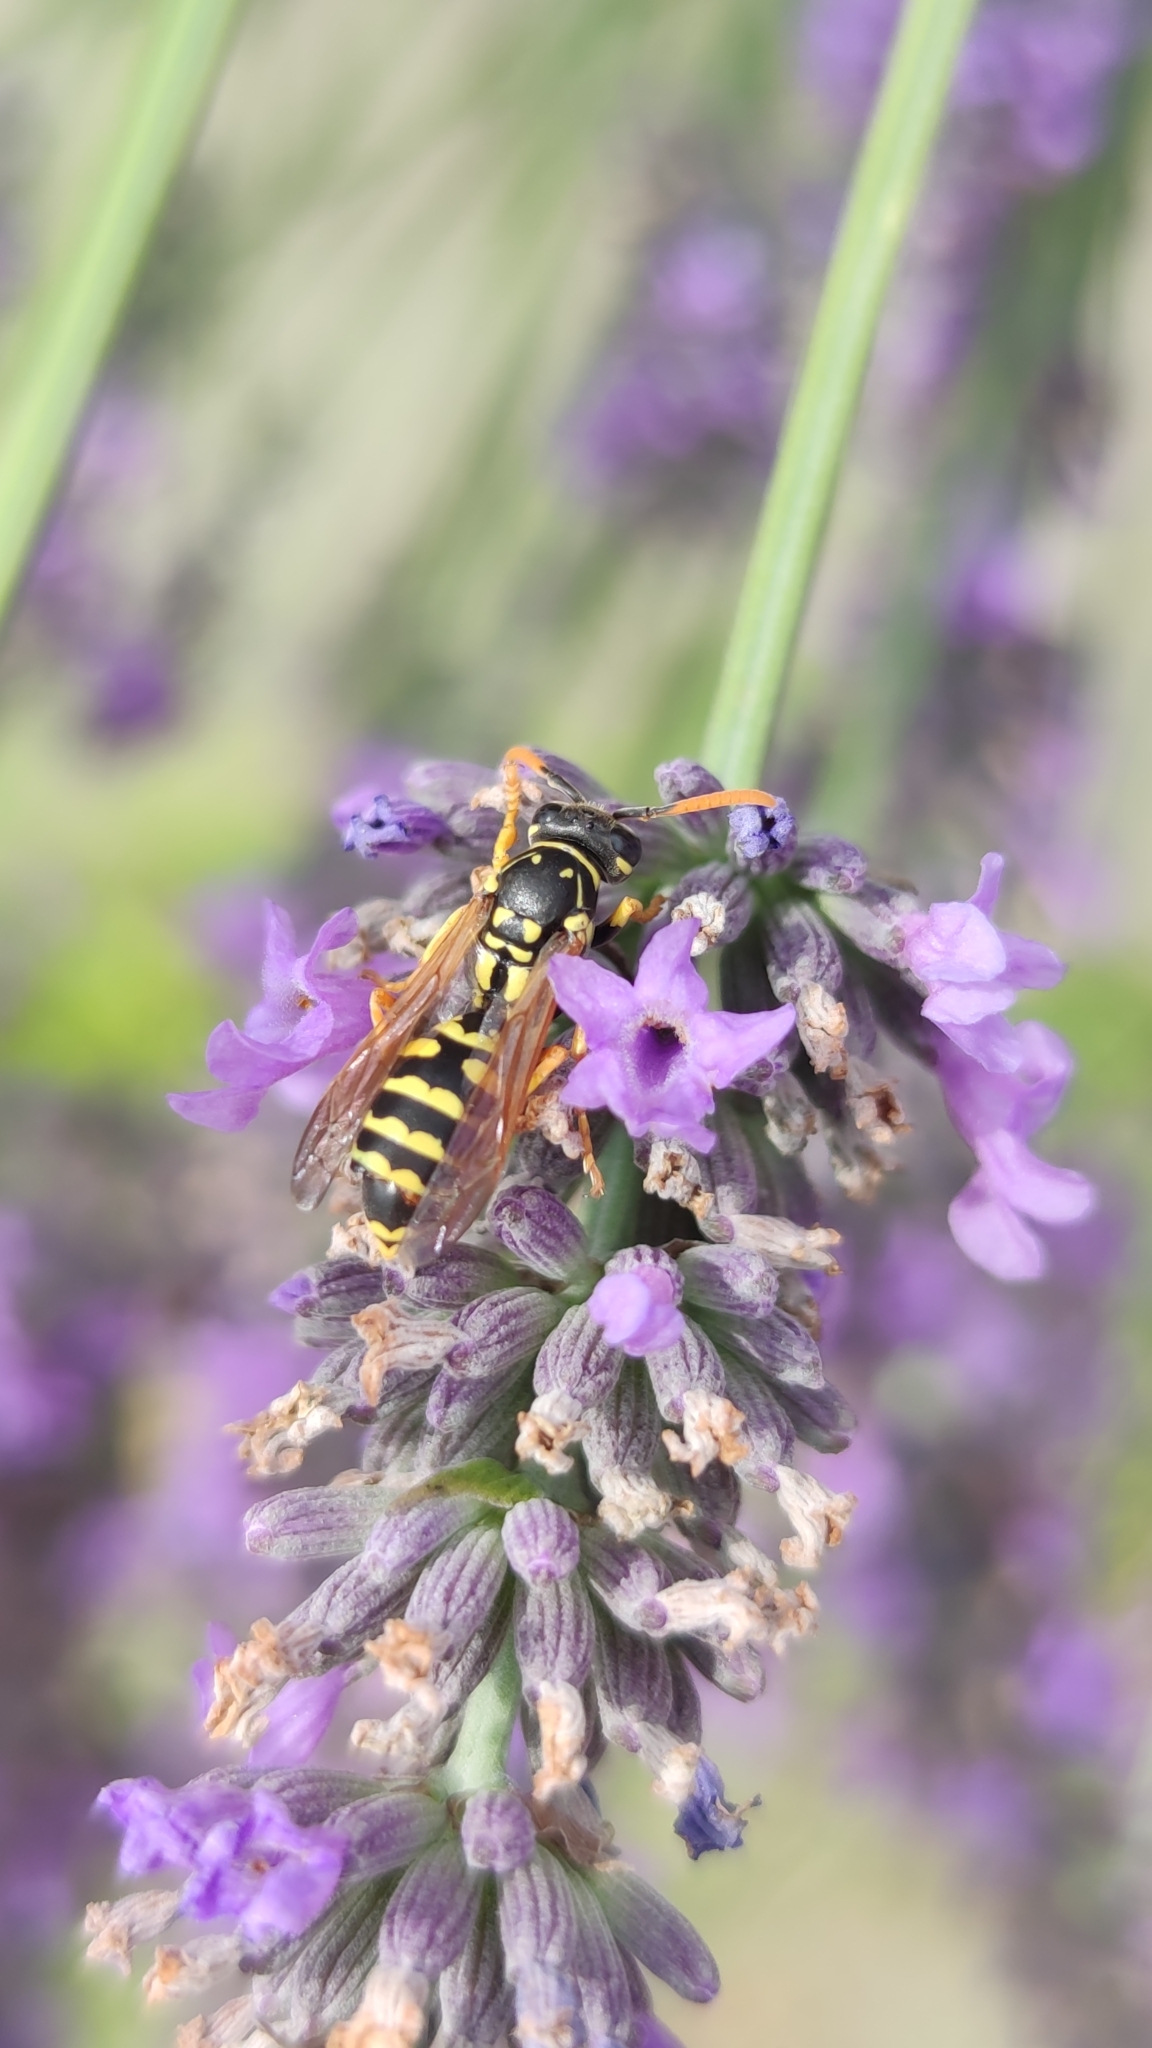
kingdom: Animalia
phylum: Arthropoda
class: Insecta
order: Hymenoptera
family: Eumenidae
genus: Polistes
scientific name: Polistes dominula
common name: Paper wasp
